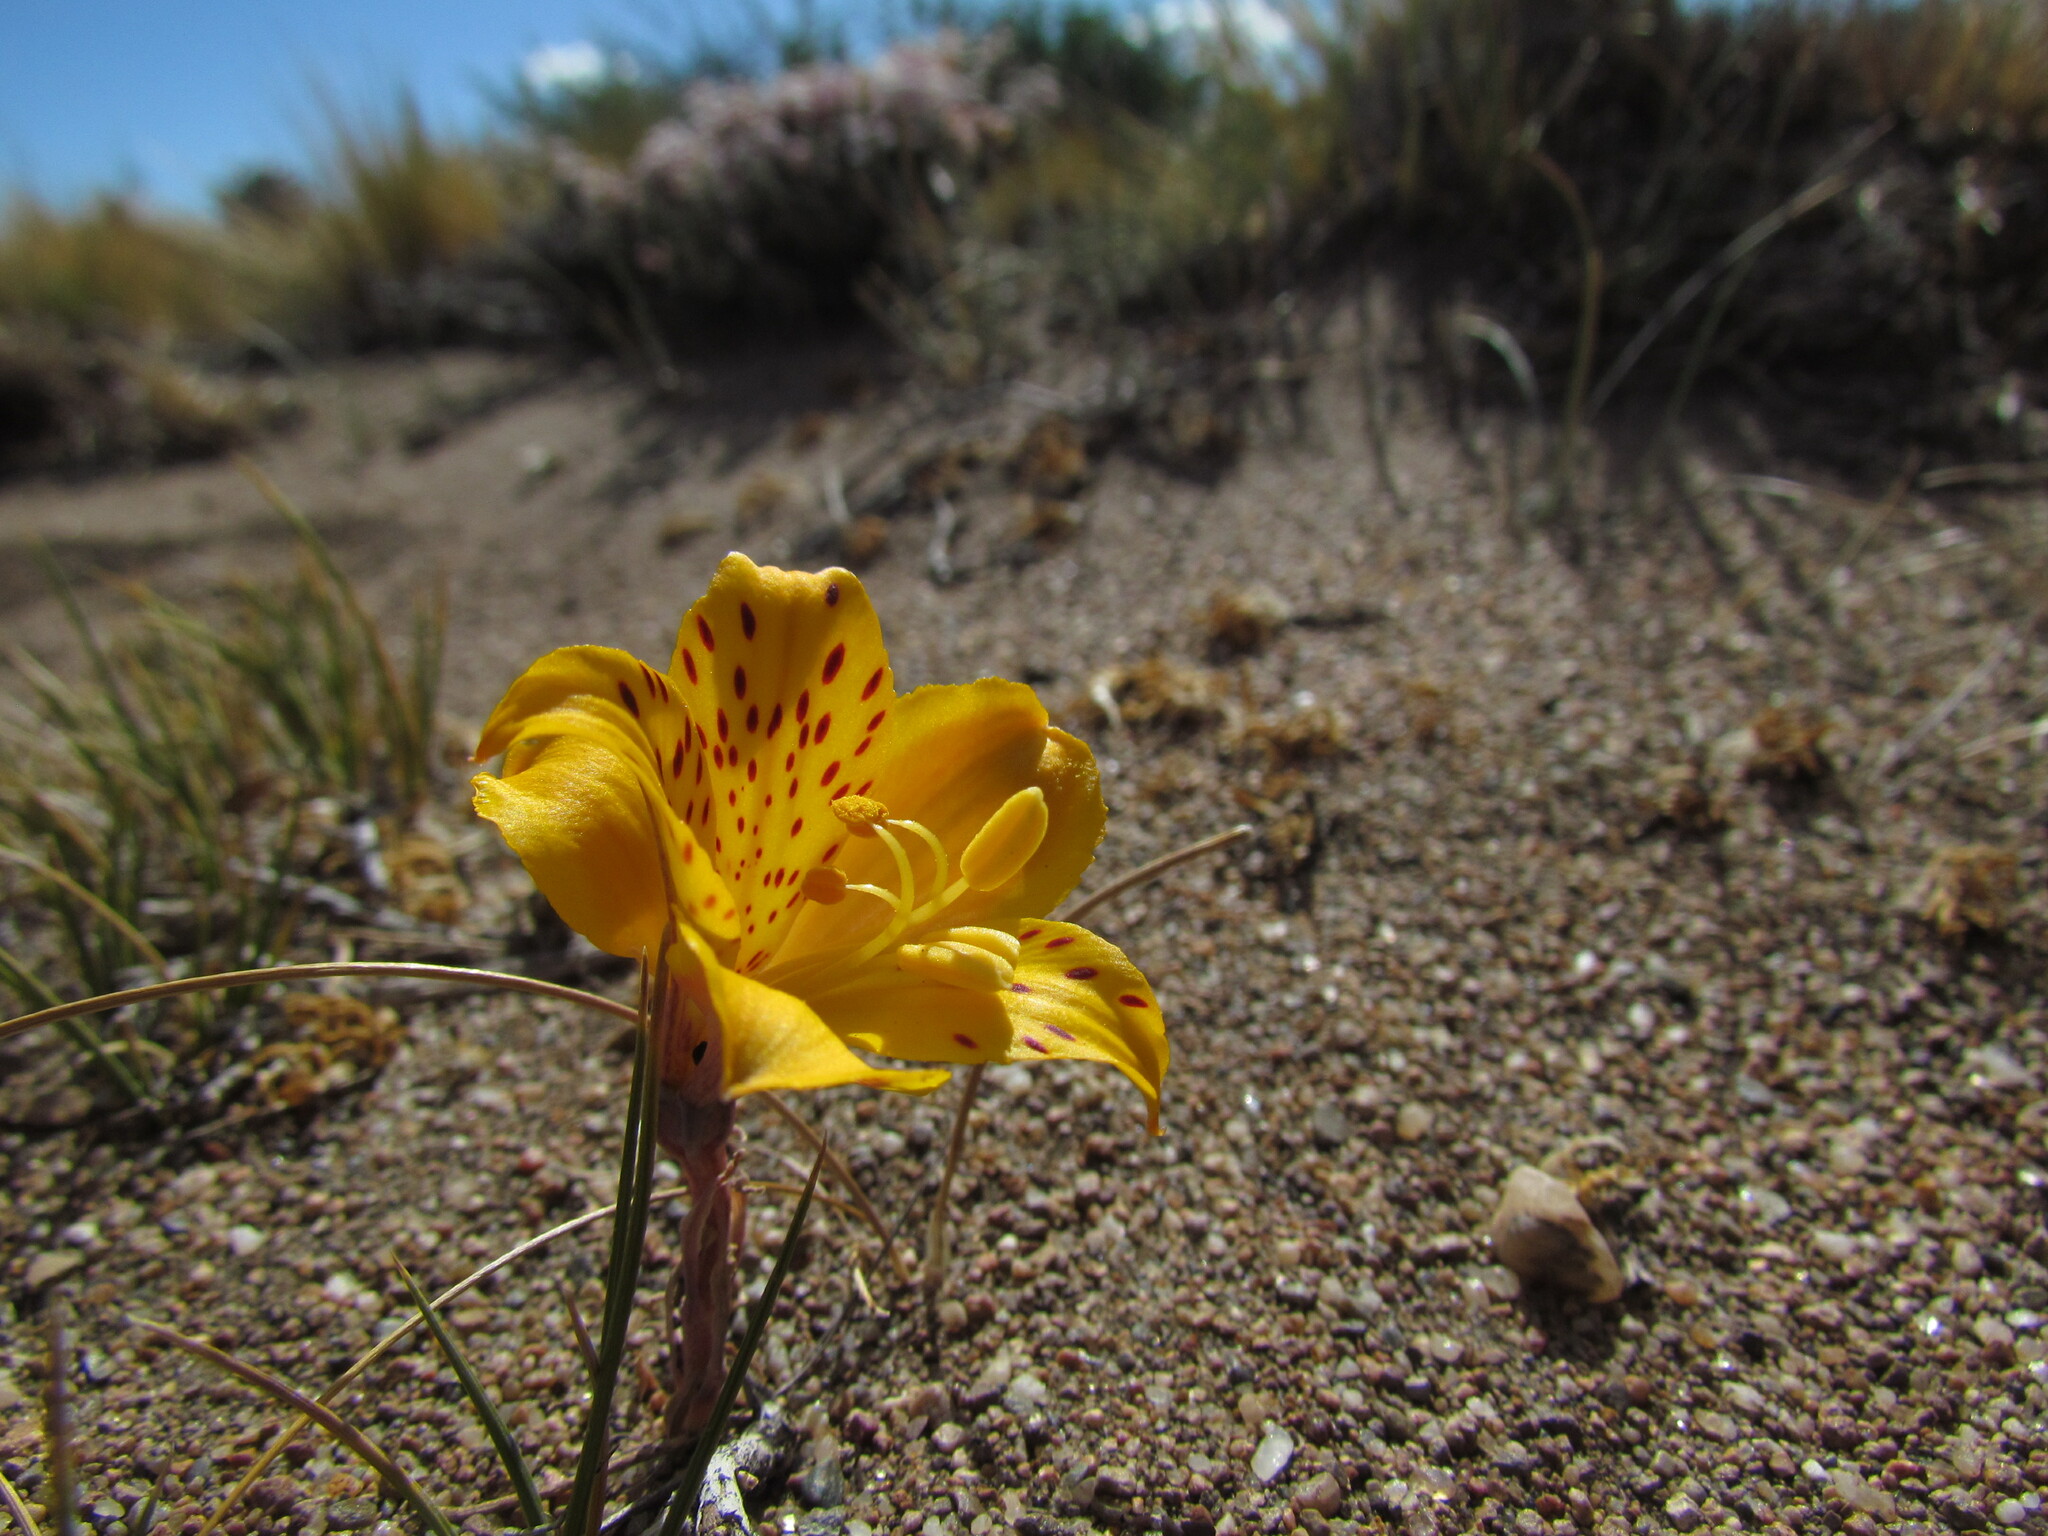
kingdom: Plantae
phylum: Tracheophyta
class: Liliopsida
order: Liliales
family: Alstroemeriaceae
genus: Alstroemeria
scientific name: Alstroemeria patagonica
